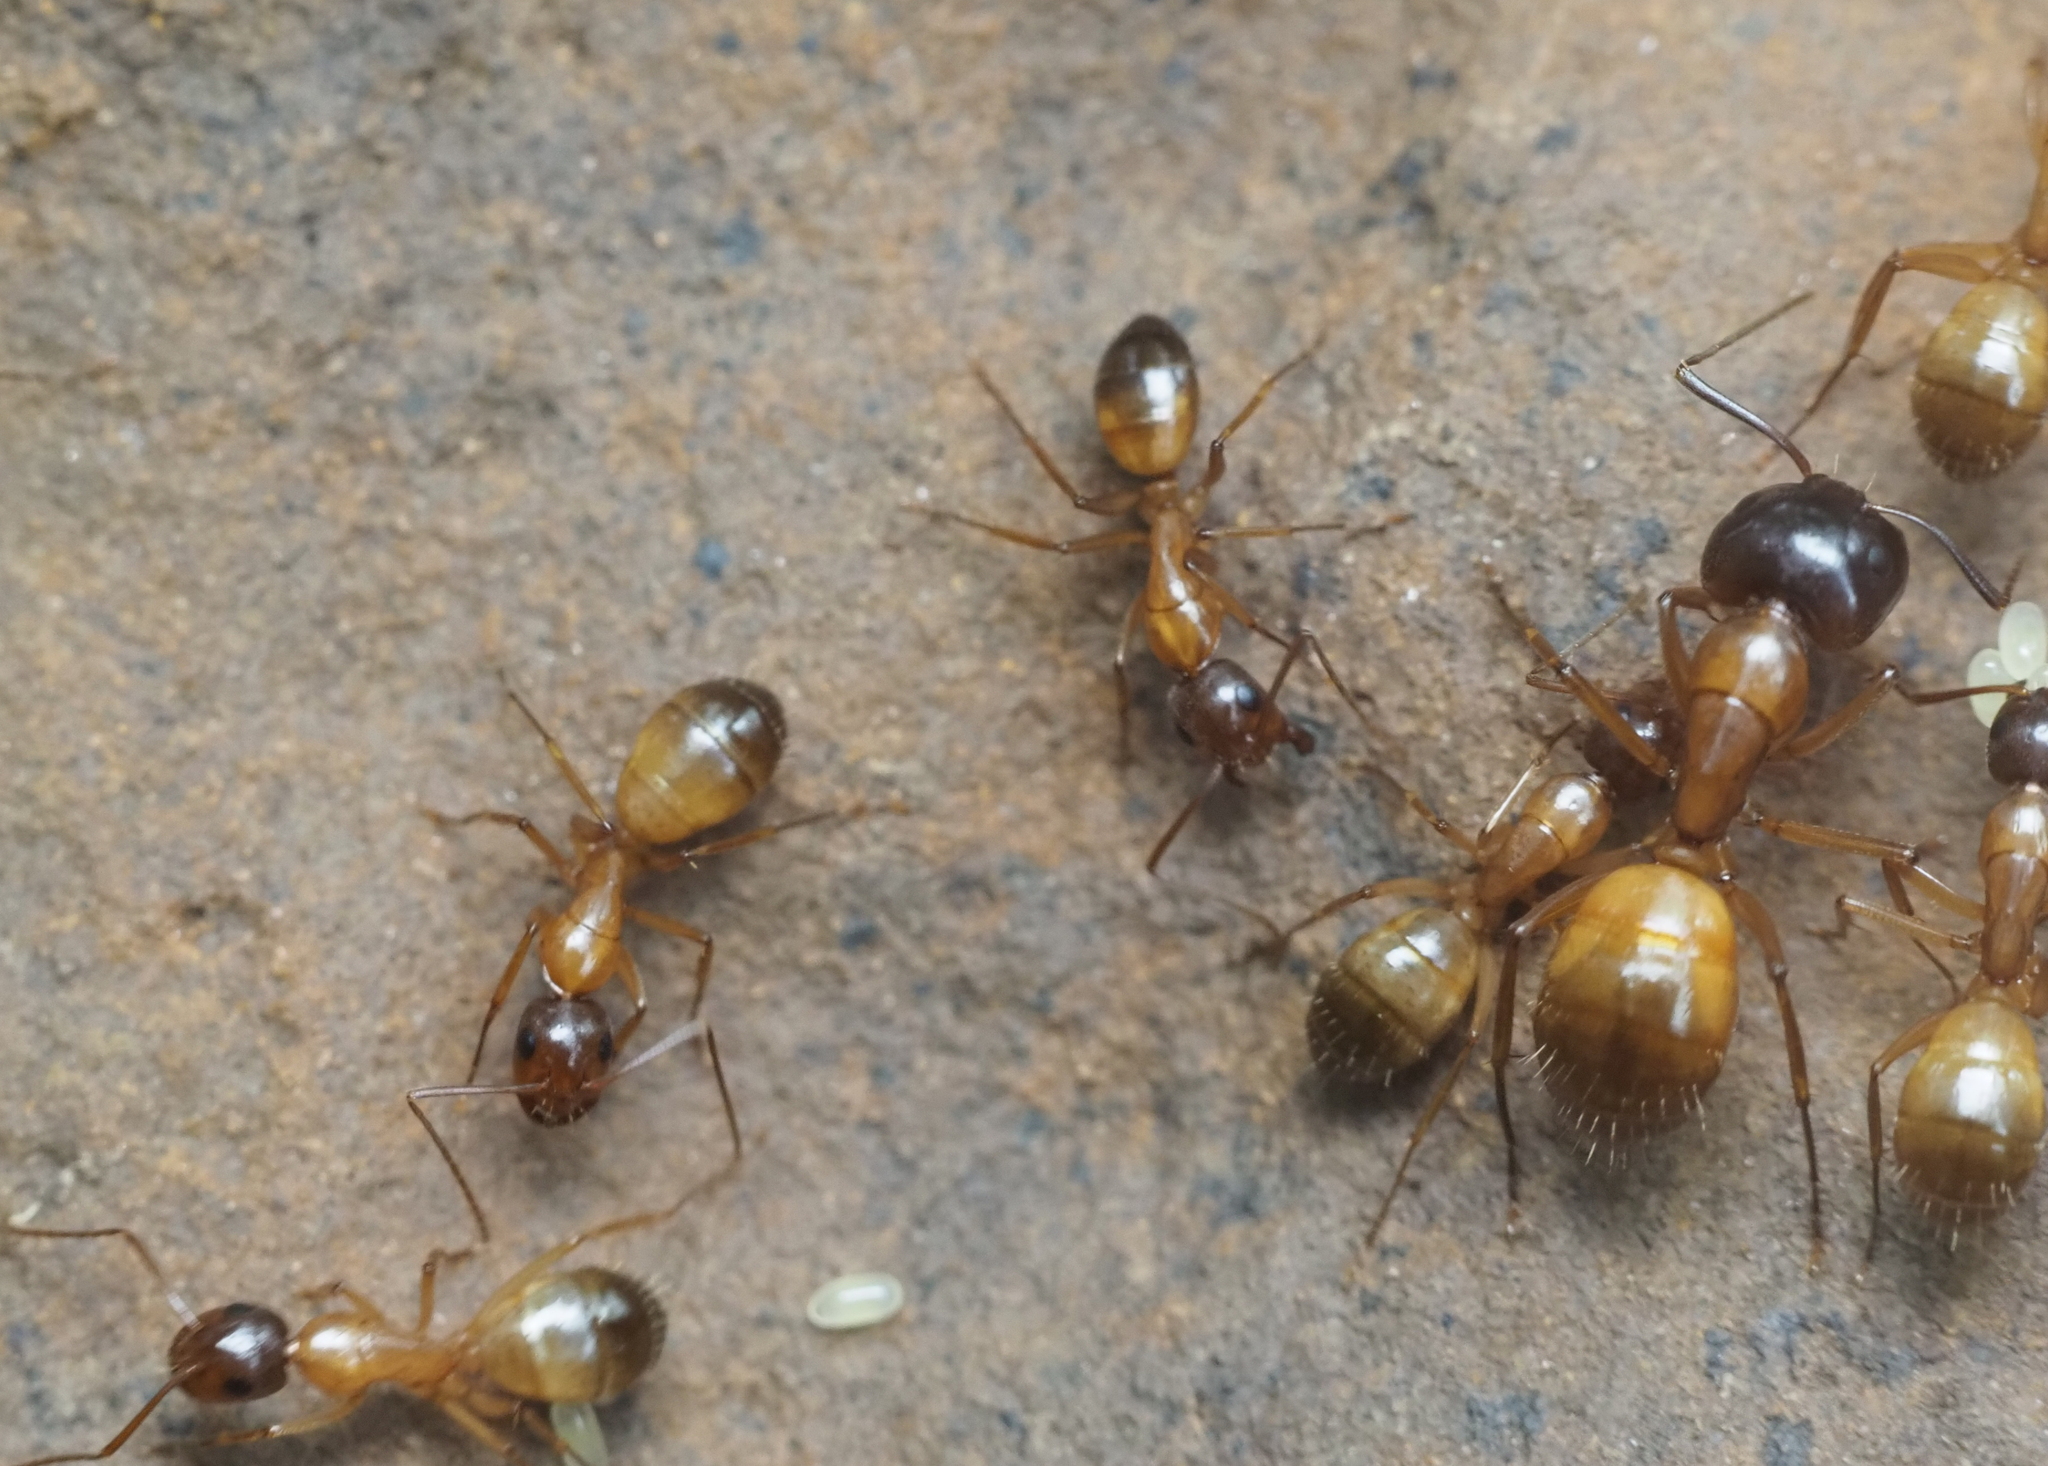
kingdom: Animalia
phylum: Arthropoda
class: Insecta
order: Hymenoptera
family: Formicidae
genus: Camponotus
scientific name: Camponotus sansabeanus
